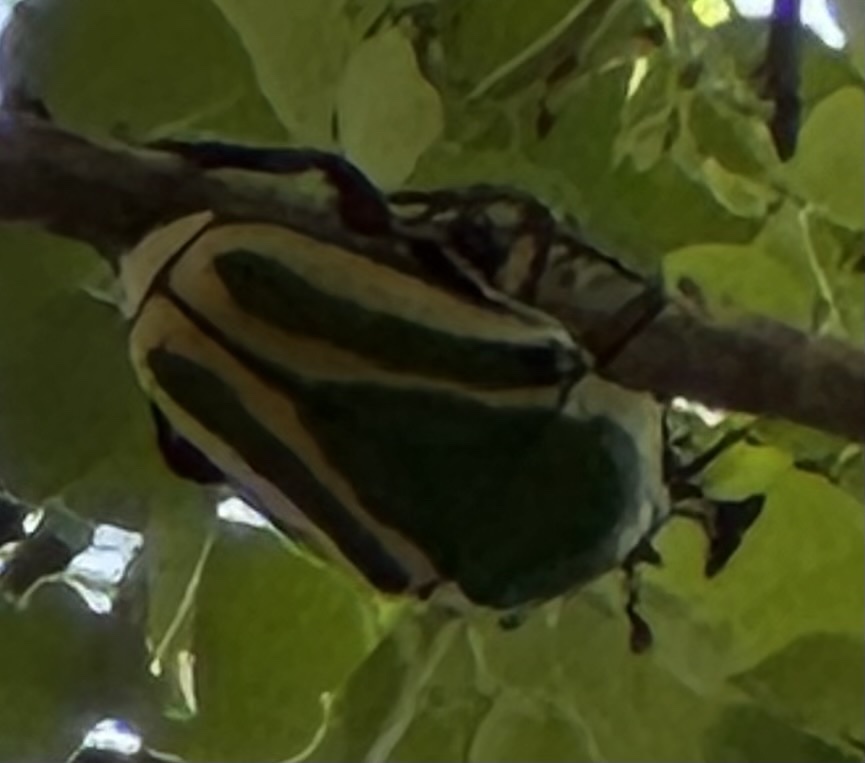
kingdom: Animalia
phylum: Arthropoda
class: Insecta
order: Coleoptera
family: Scarabaeidae
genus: Dicronorhina
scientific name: Dicronorhina derbyana
